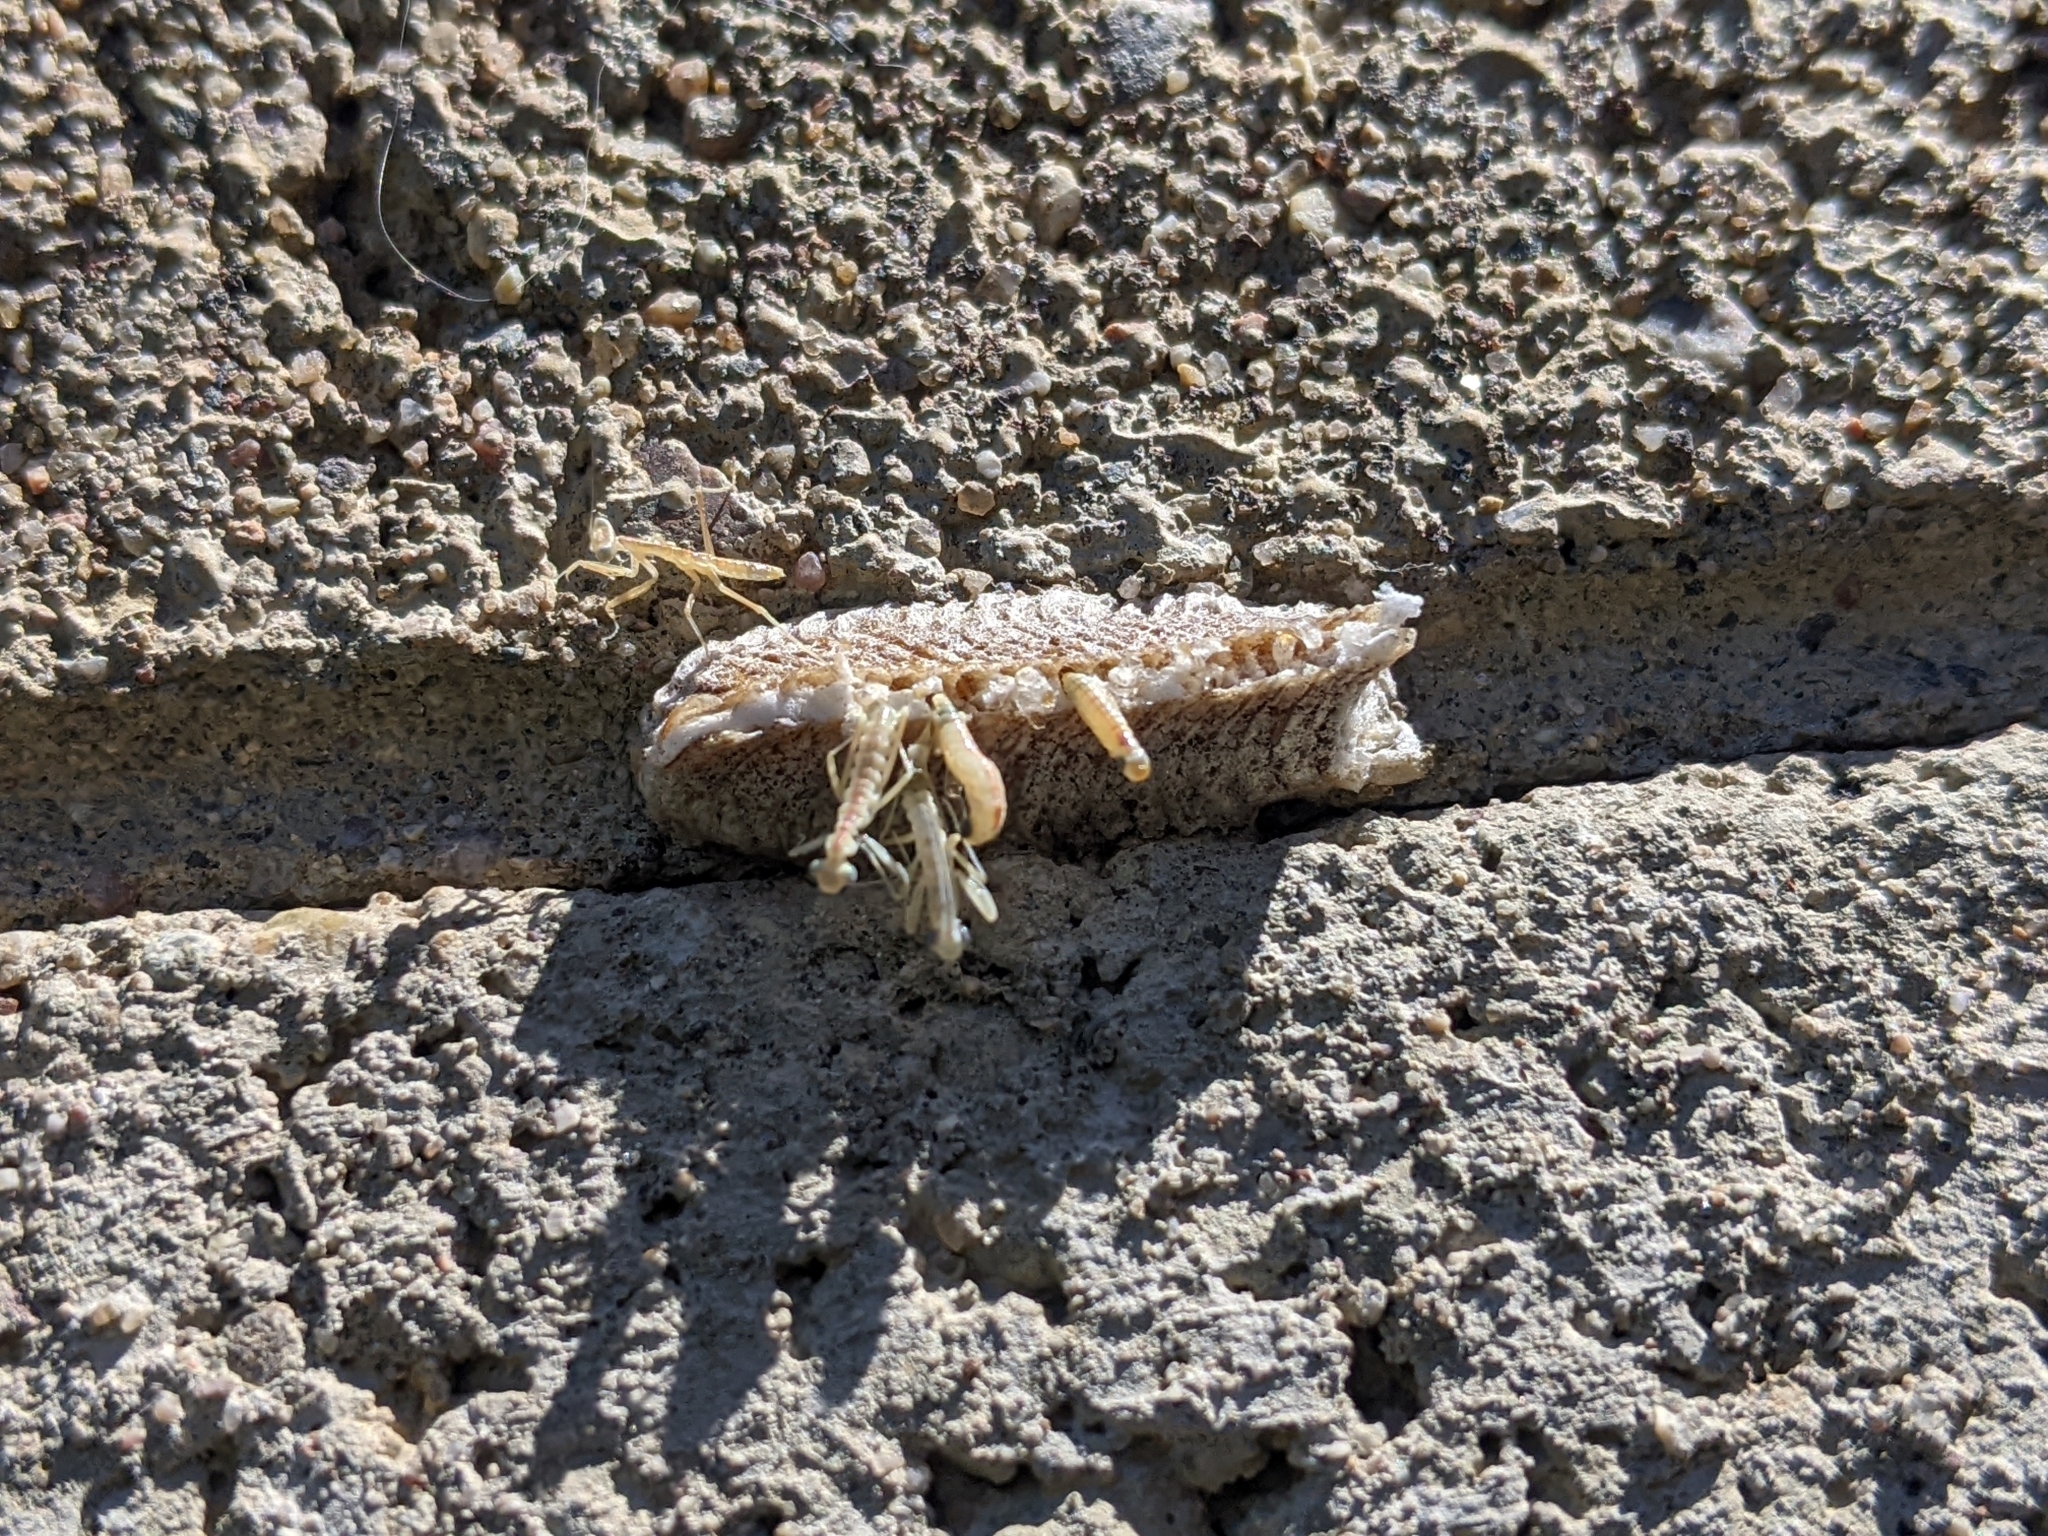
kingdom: Animalia
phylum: Arthropoda
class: Insecta
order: Mantodea
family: Eremiaphilidae
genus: Iris
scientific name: Iris oratoria
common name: Mediterranean mantis
